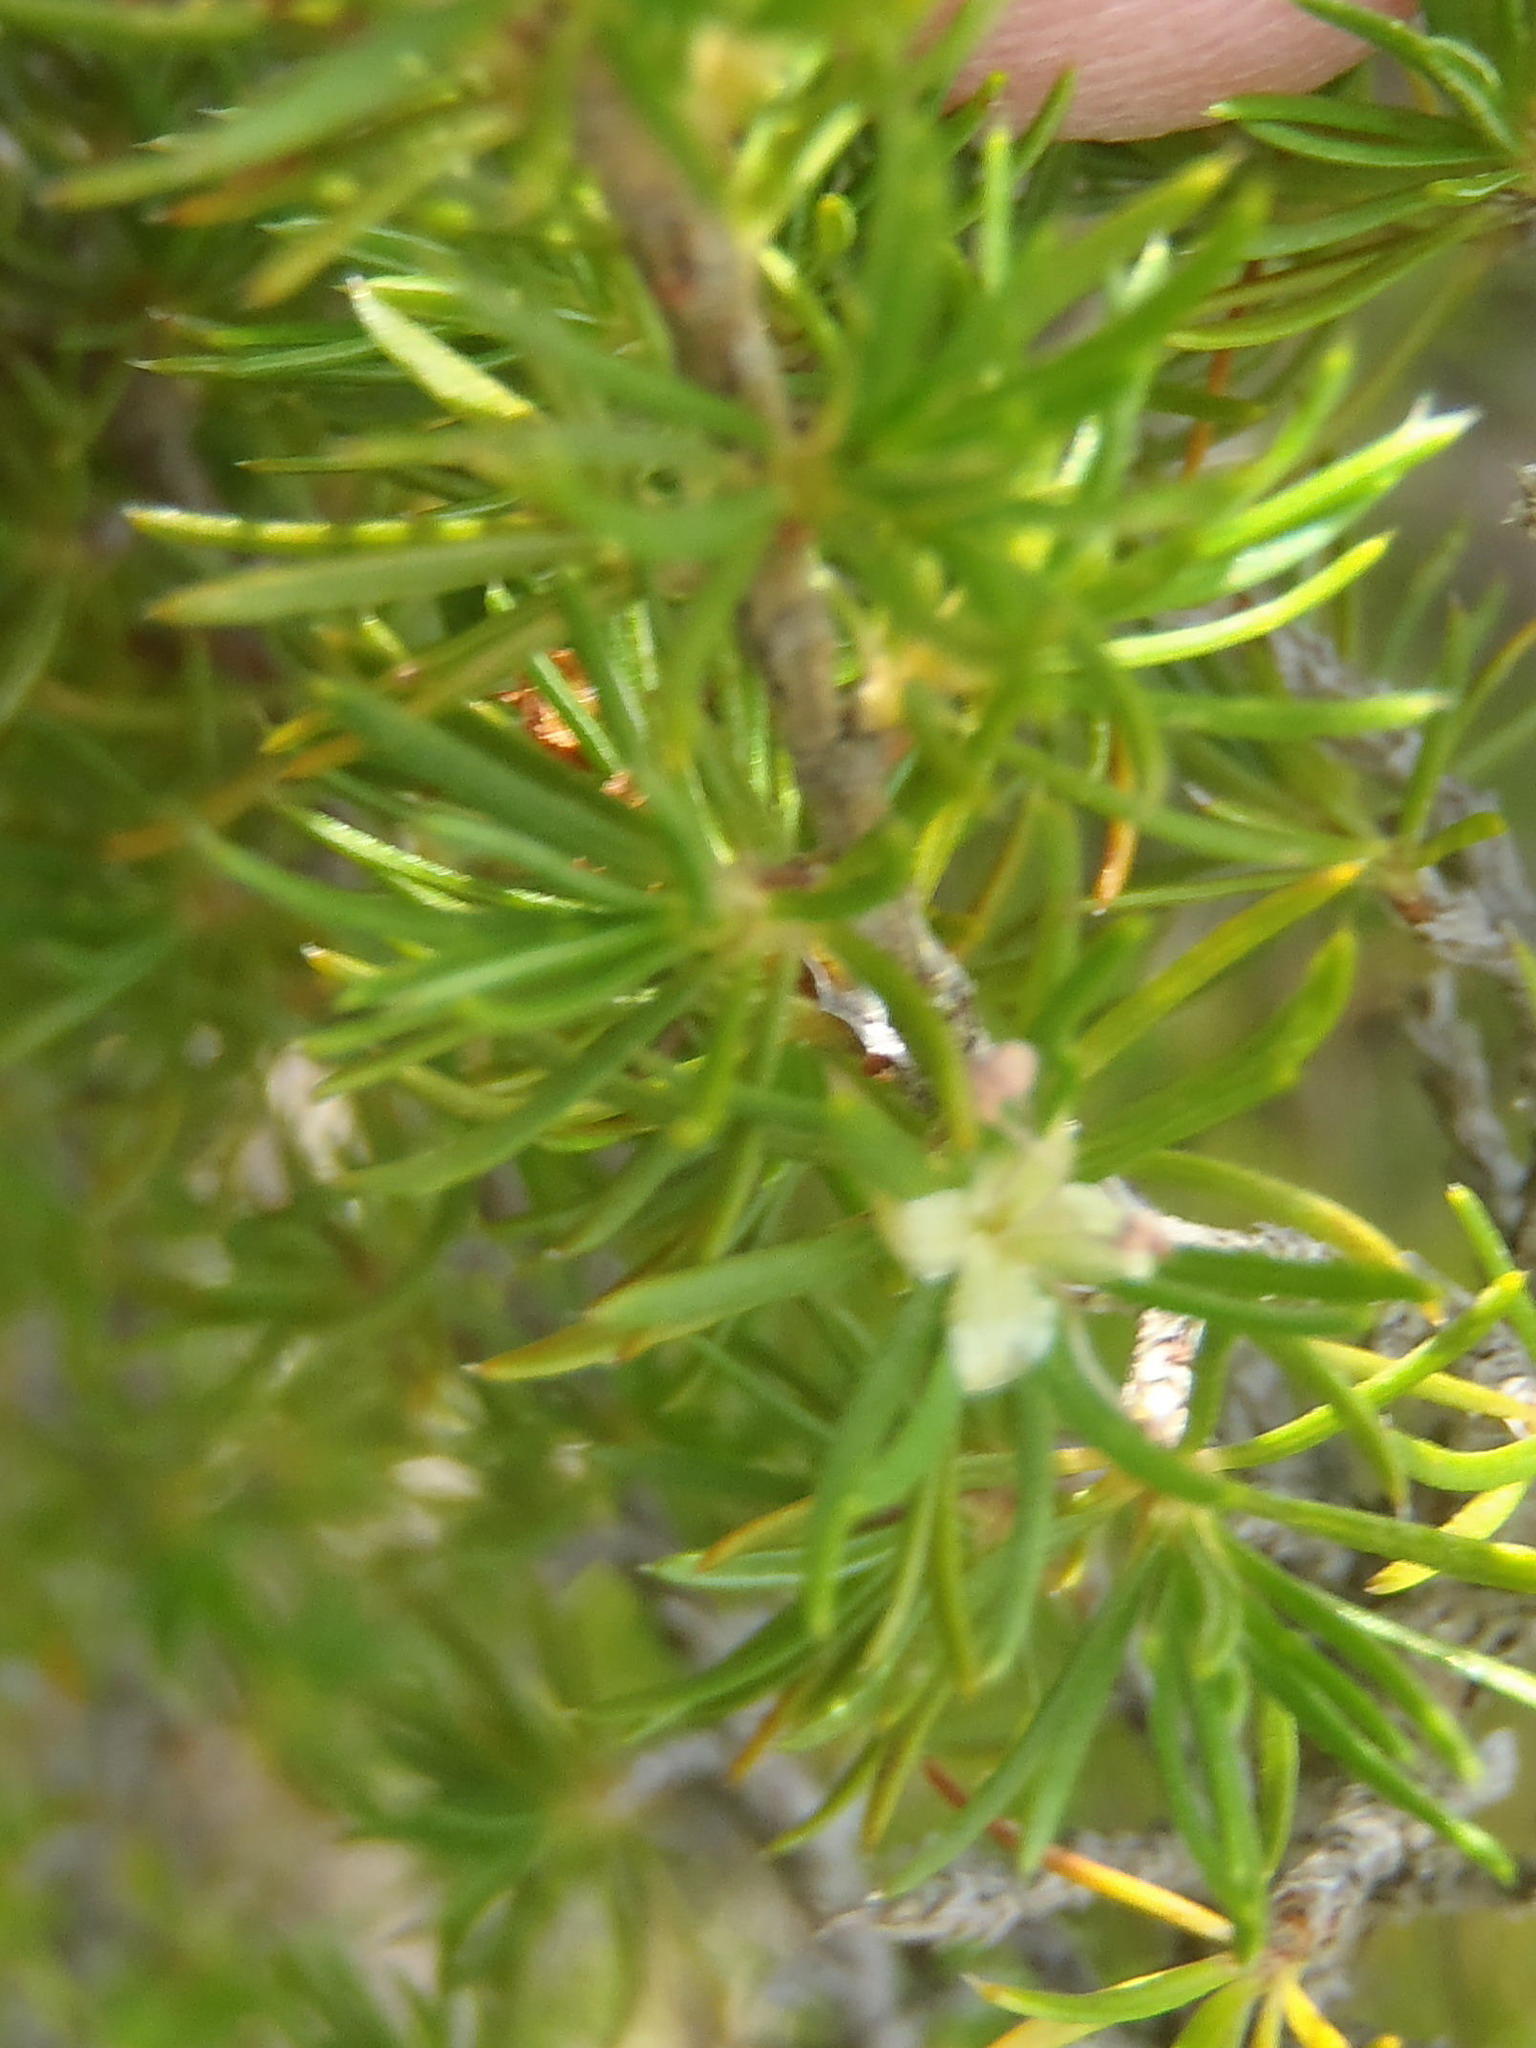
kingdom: Plantae
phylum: Tracheophyta
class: Magnoliopsida
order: Rosales
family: Rosaceae
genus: Cliffortia
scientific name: Cliffortia paucistaminea
